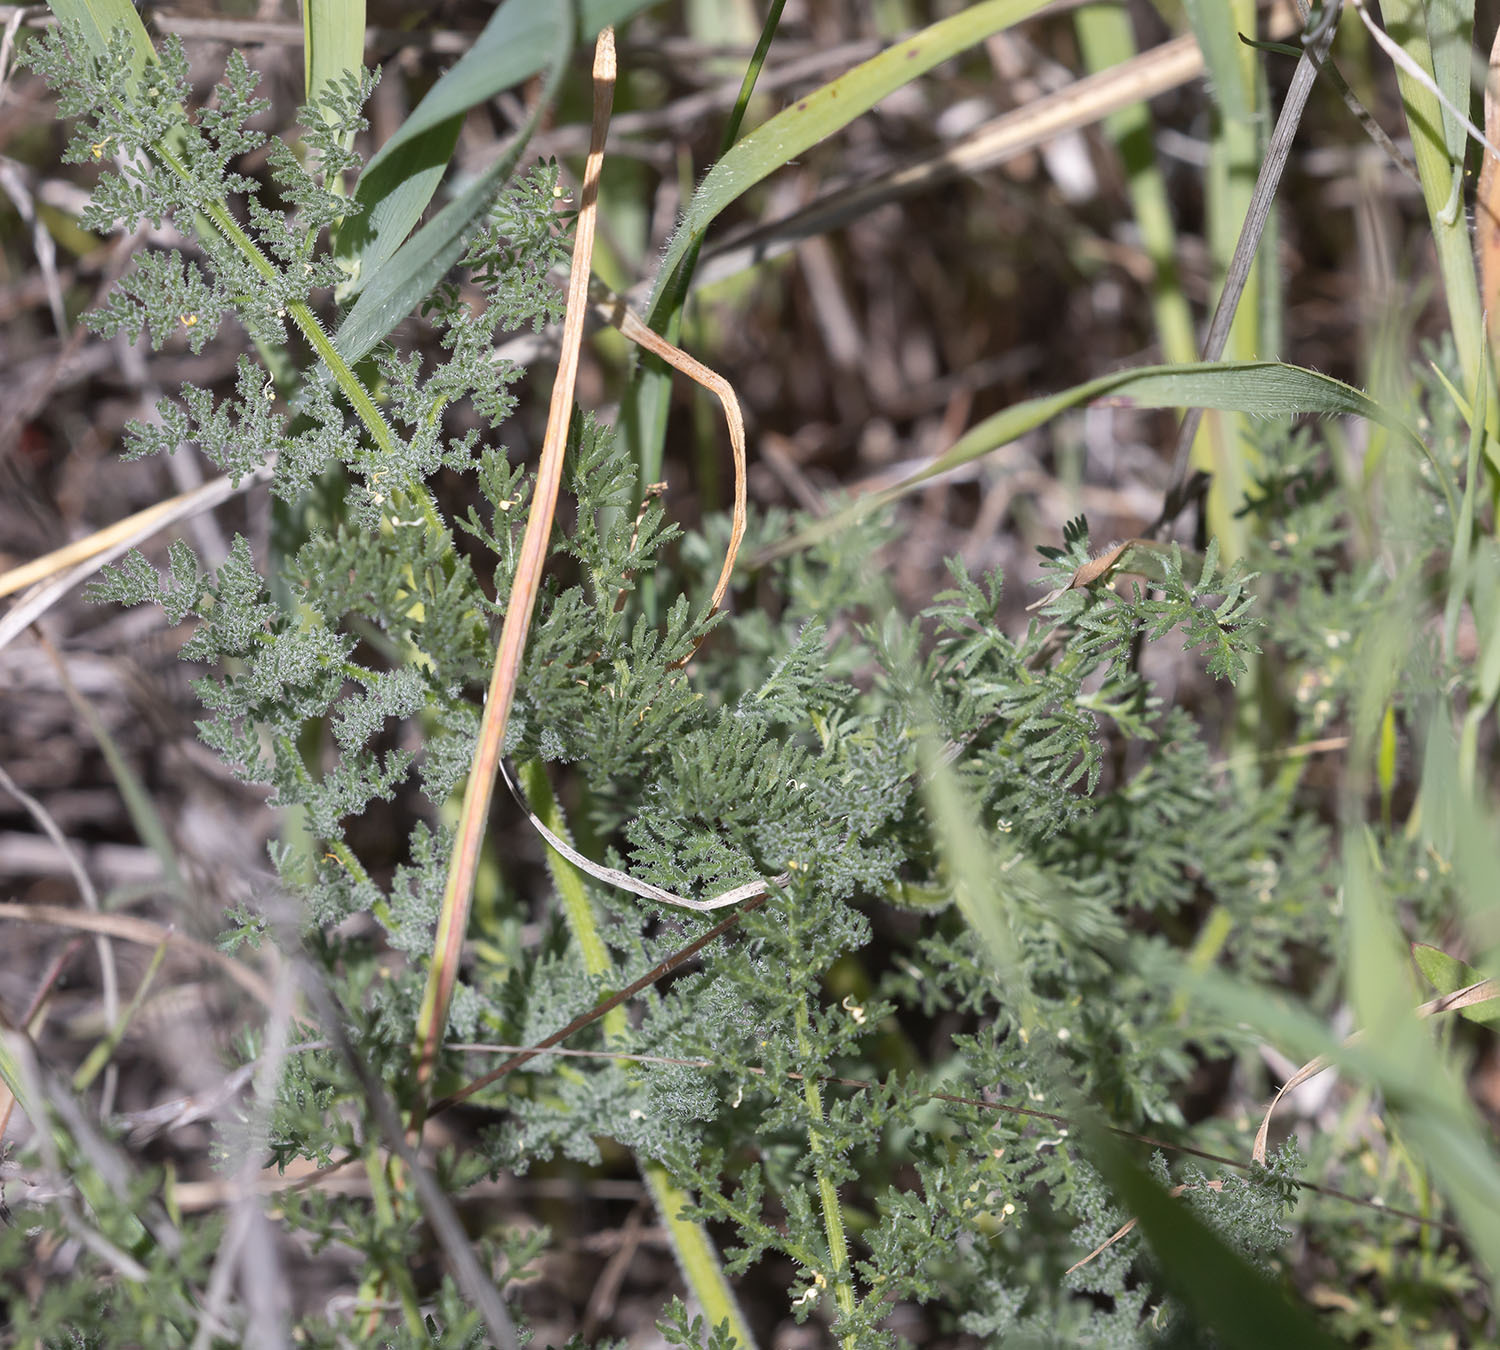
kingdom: Plantae
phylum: Tracheophyta
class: Magnoliopsida
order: Apiales
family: Apiaceae
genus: Lomatium
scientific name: Lomatium dasycarpum
